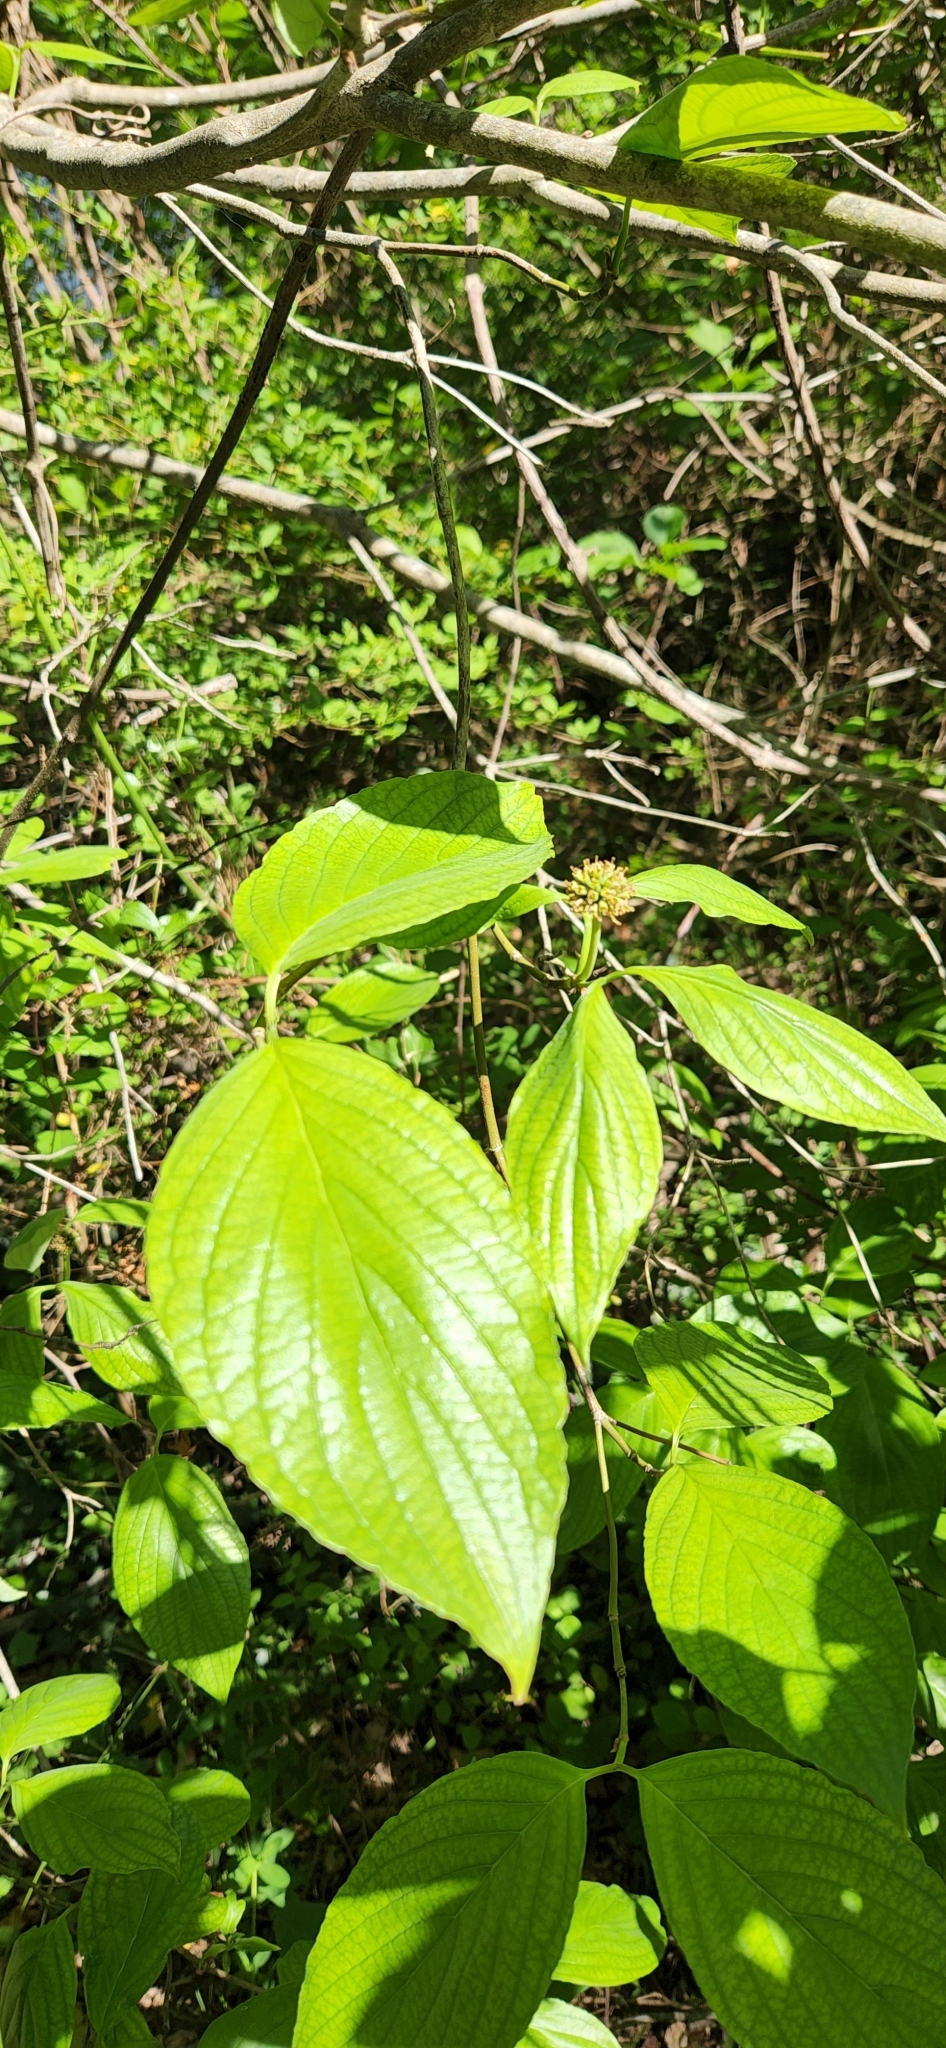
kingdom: Plantae
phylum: Tracheophyta
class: Magnoliopsida
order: Cornales
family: Cornaceae
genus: Cornus
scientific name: Cornus florida
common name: Flowering dogwood
